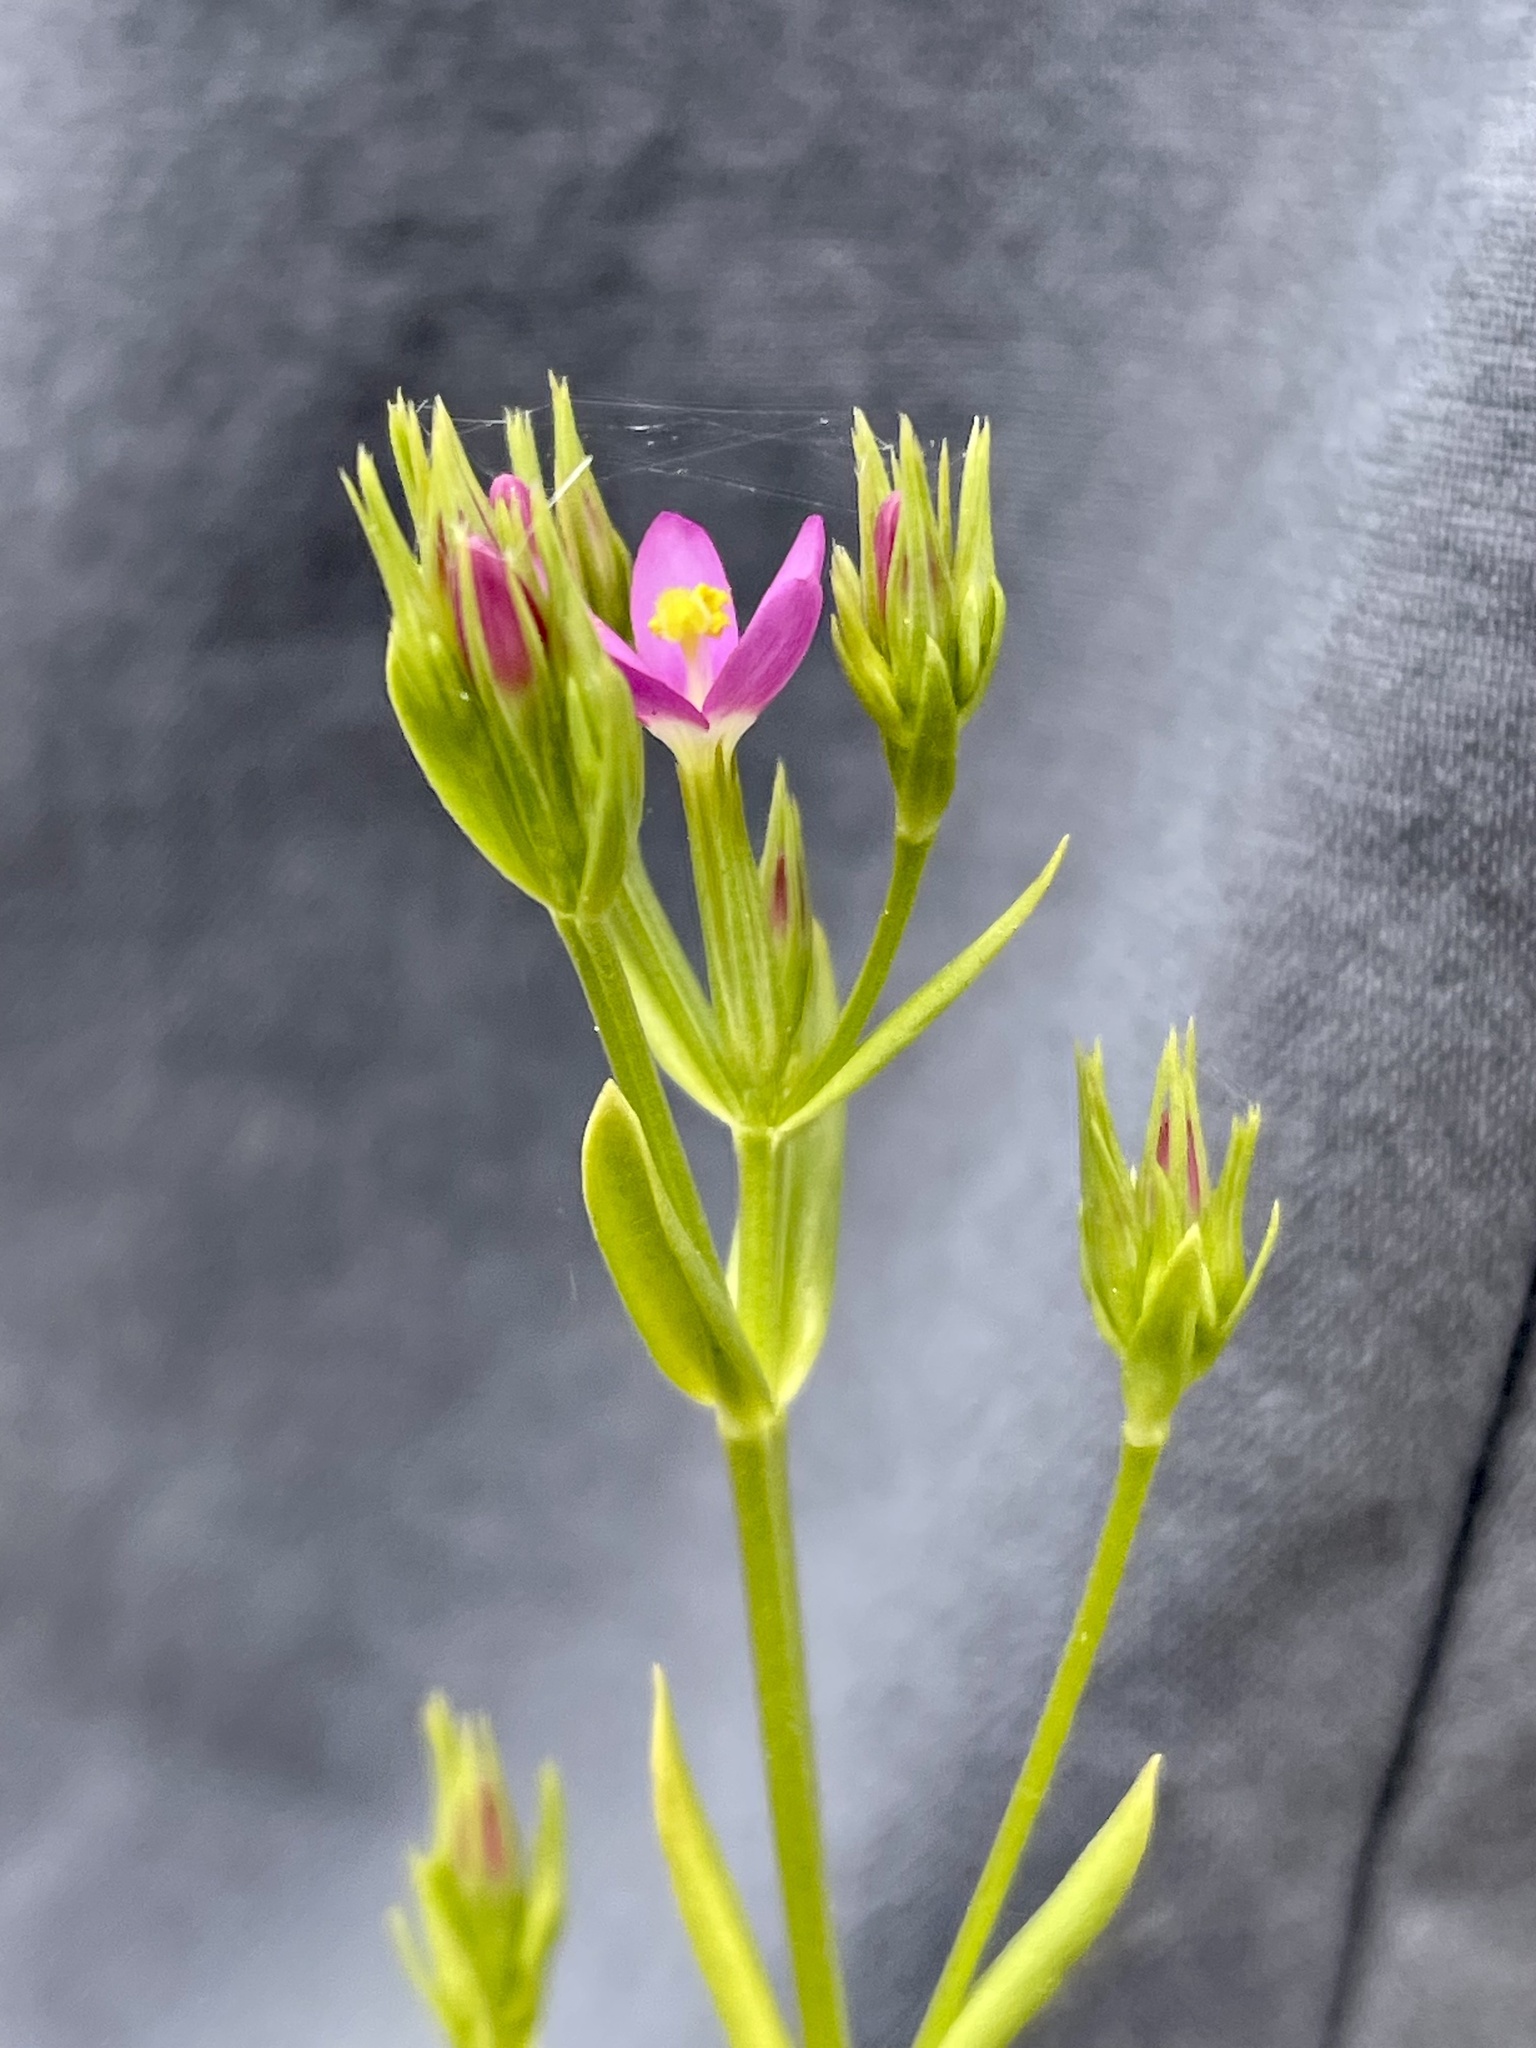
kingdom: Plantae
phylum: Tracheophyta
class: Magnoliopsida
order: Gentianales
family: Gentianaceae
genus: Centaurium
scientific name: Centaurium tenuiflorum
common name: Slender centaury
